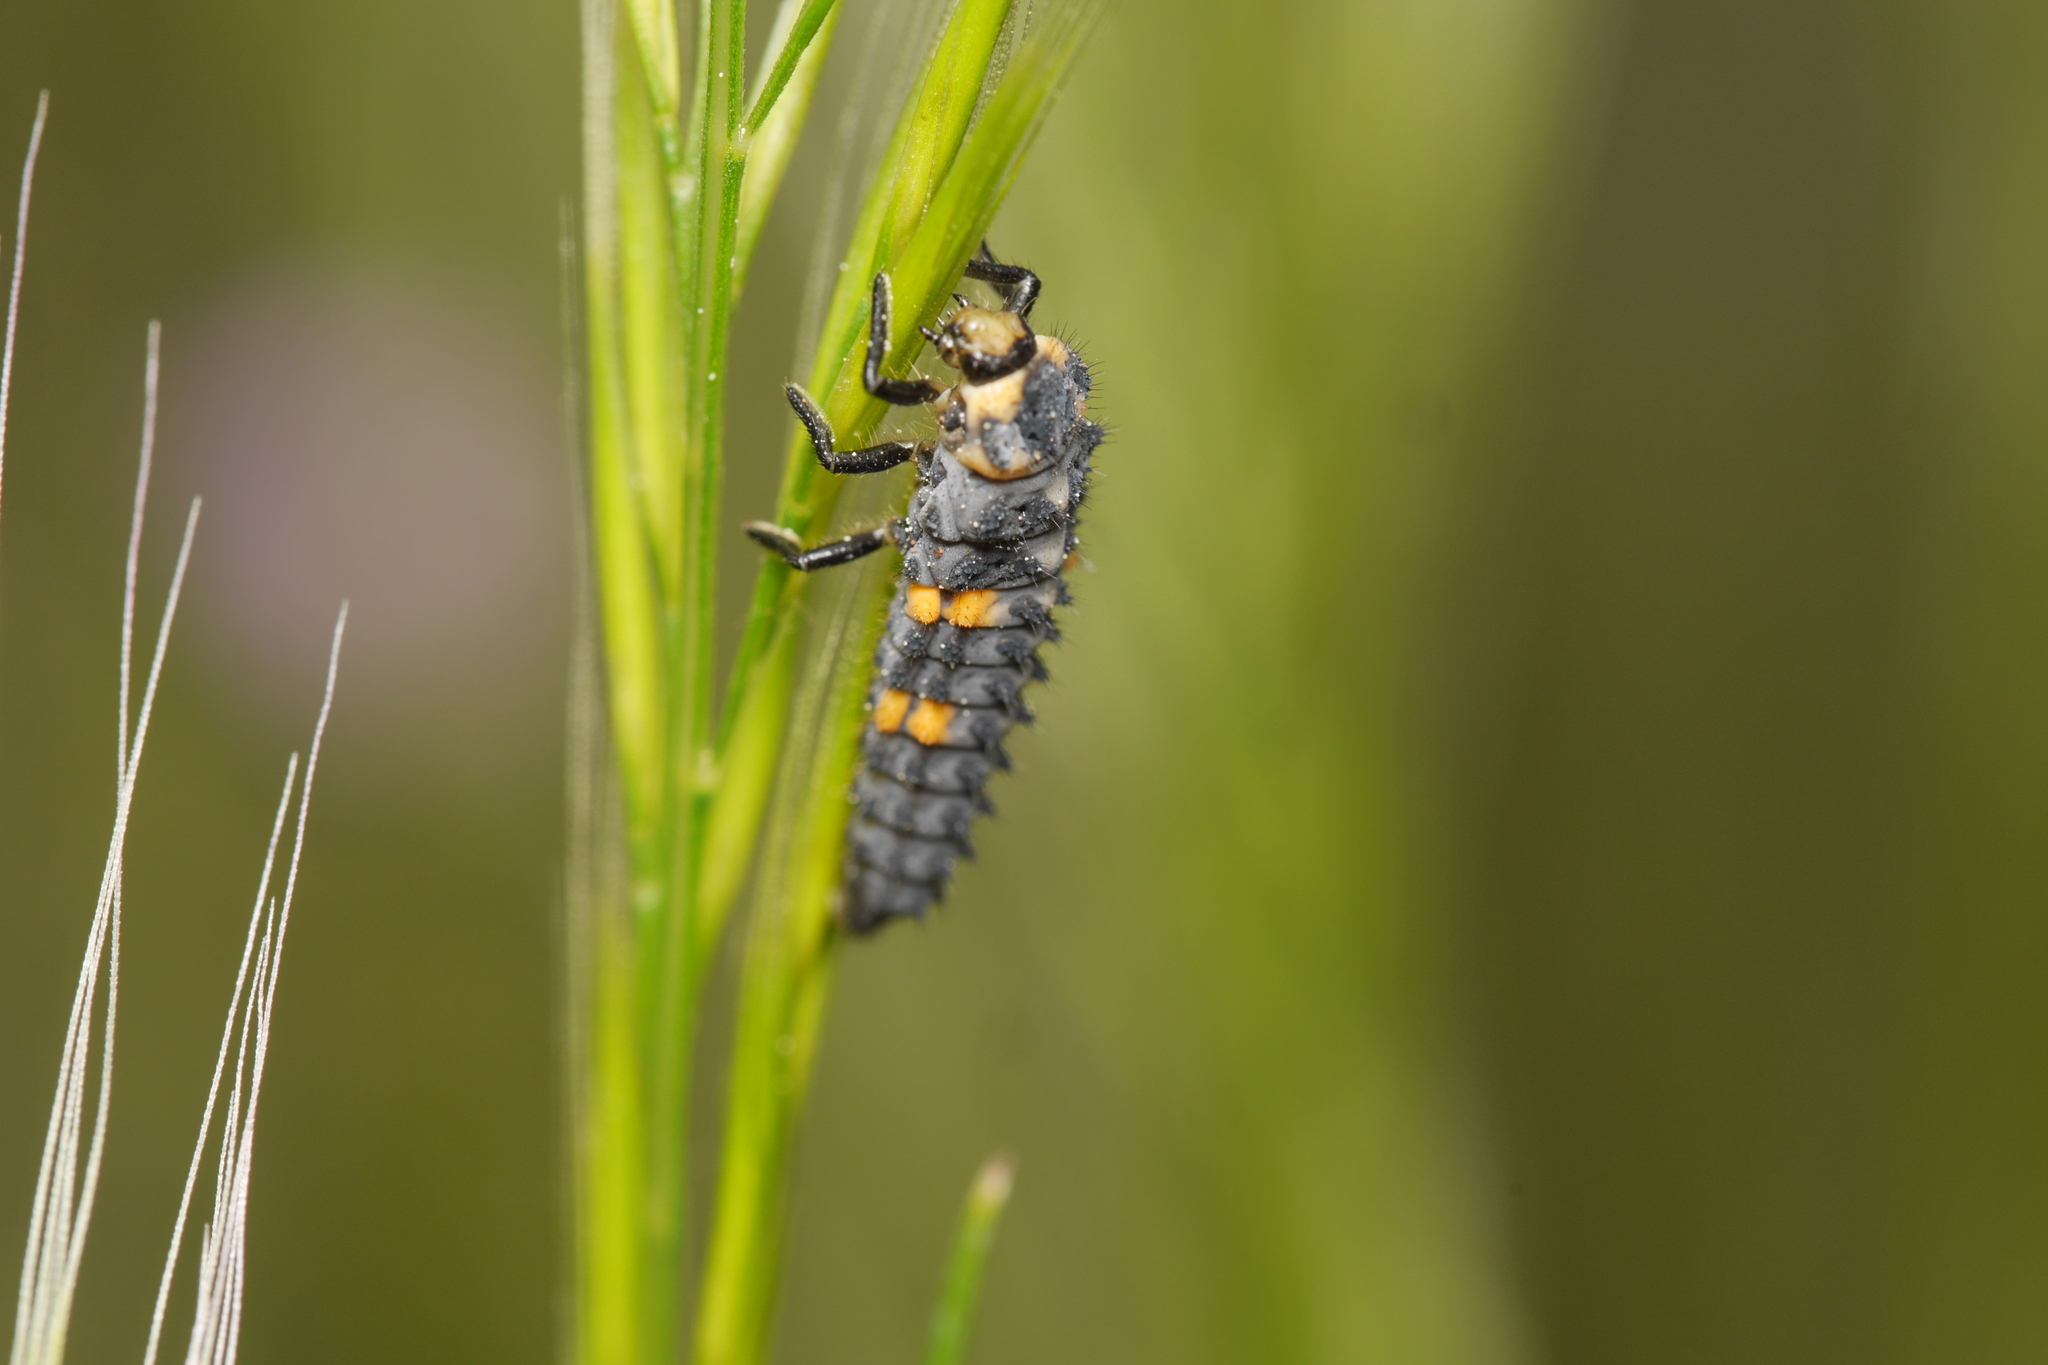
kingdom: Animalia
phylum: Arthropoda
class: Insecta
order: Coleoptera
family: Coccinellidae
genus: Coccinella
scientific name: Coccinella septempunctata
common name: Sevenspotted lady beetle
